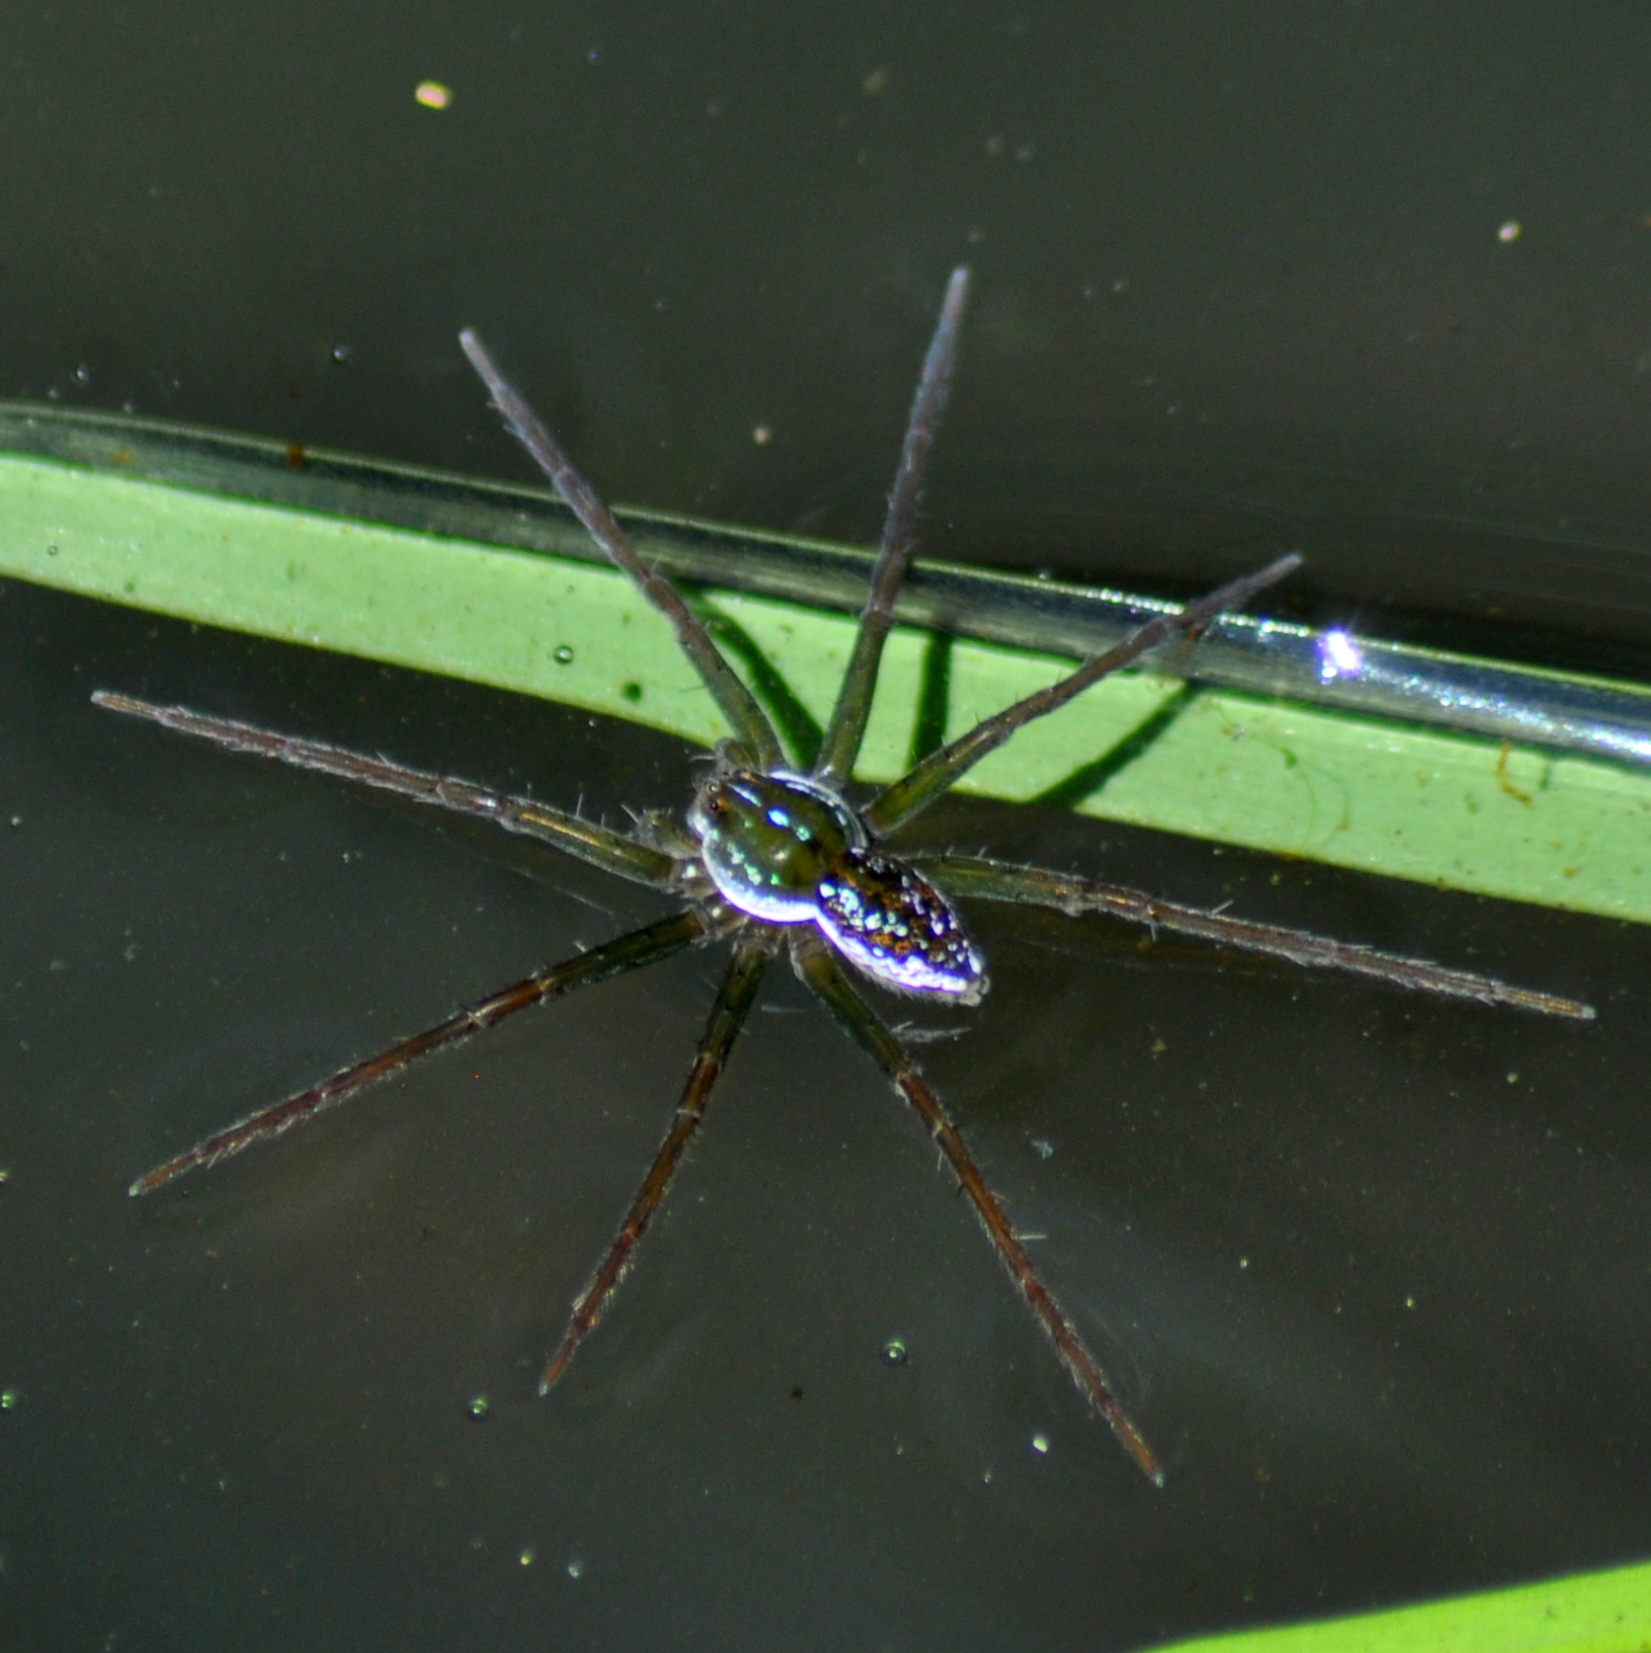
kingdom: Animalia
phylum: Arthropoda
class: Arachnida
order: Araneae
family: Pisauridae
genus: Thaumasia
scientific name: Thaumasia velox
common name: Nursery web spiders
